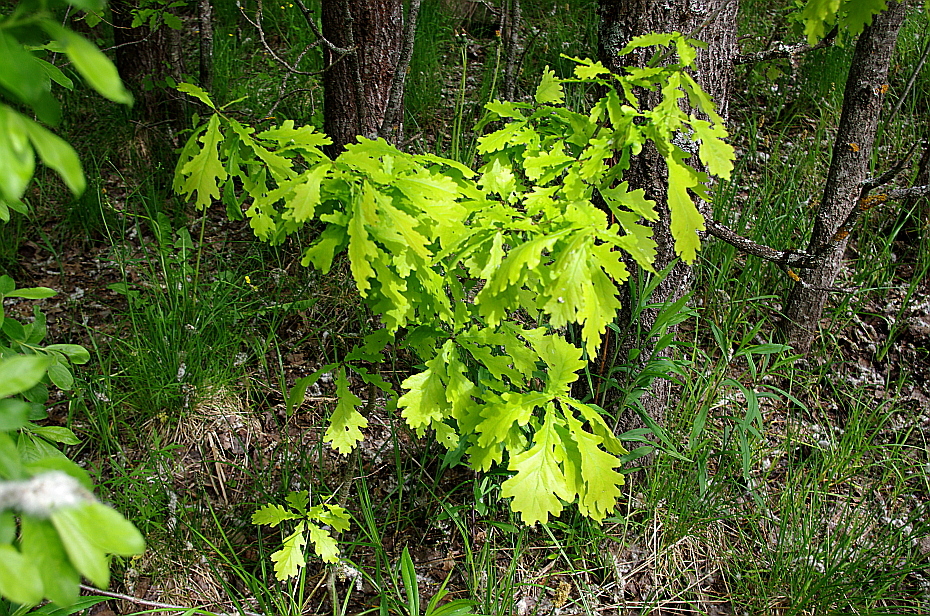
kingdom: Plantae
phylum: Tracheophyta
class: Magnoliopsida
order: Fagales
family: Fagaceae
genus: Quercus
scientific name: Quercus robur
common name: Pedunculate oak
